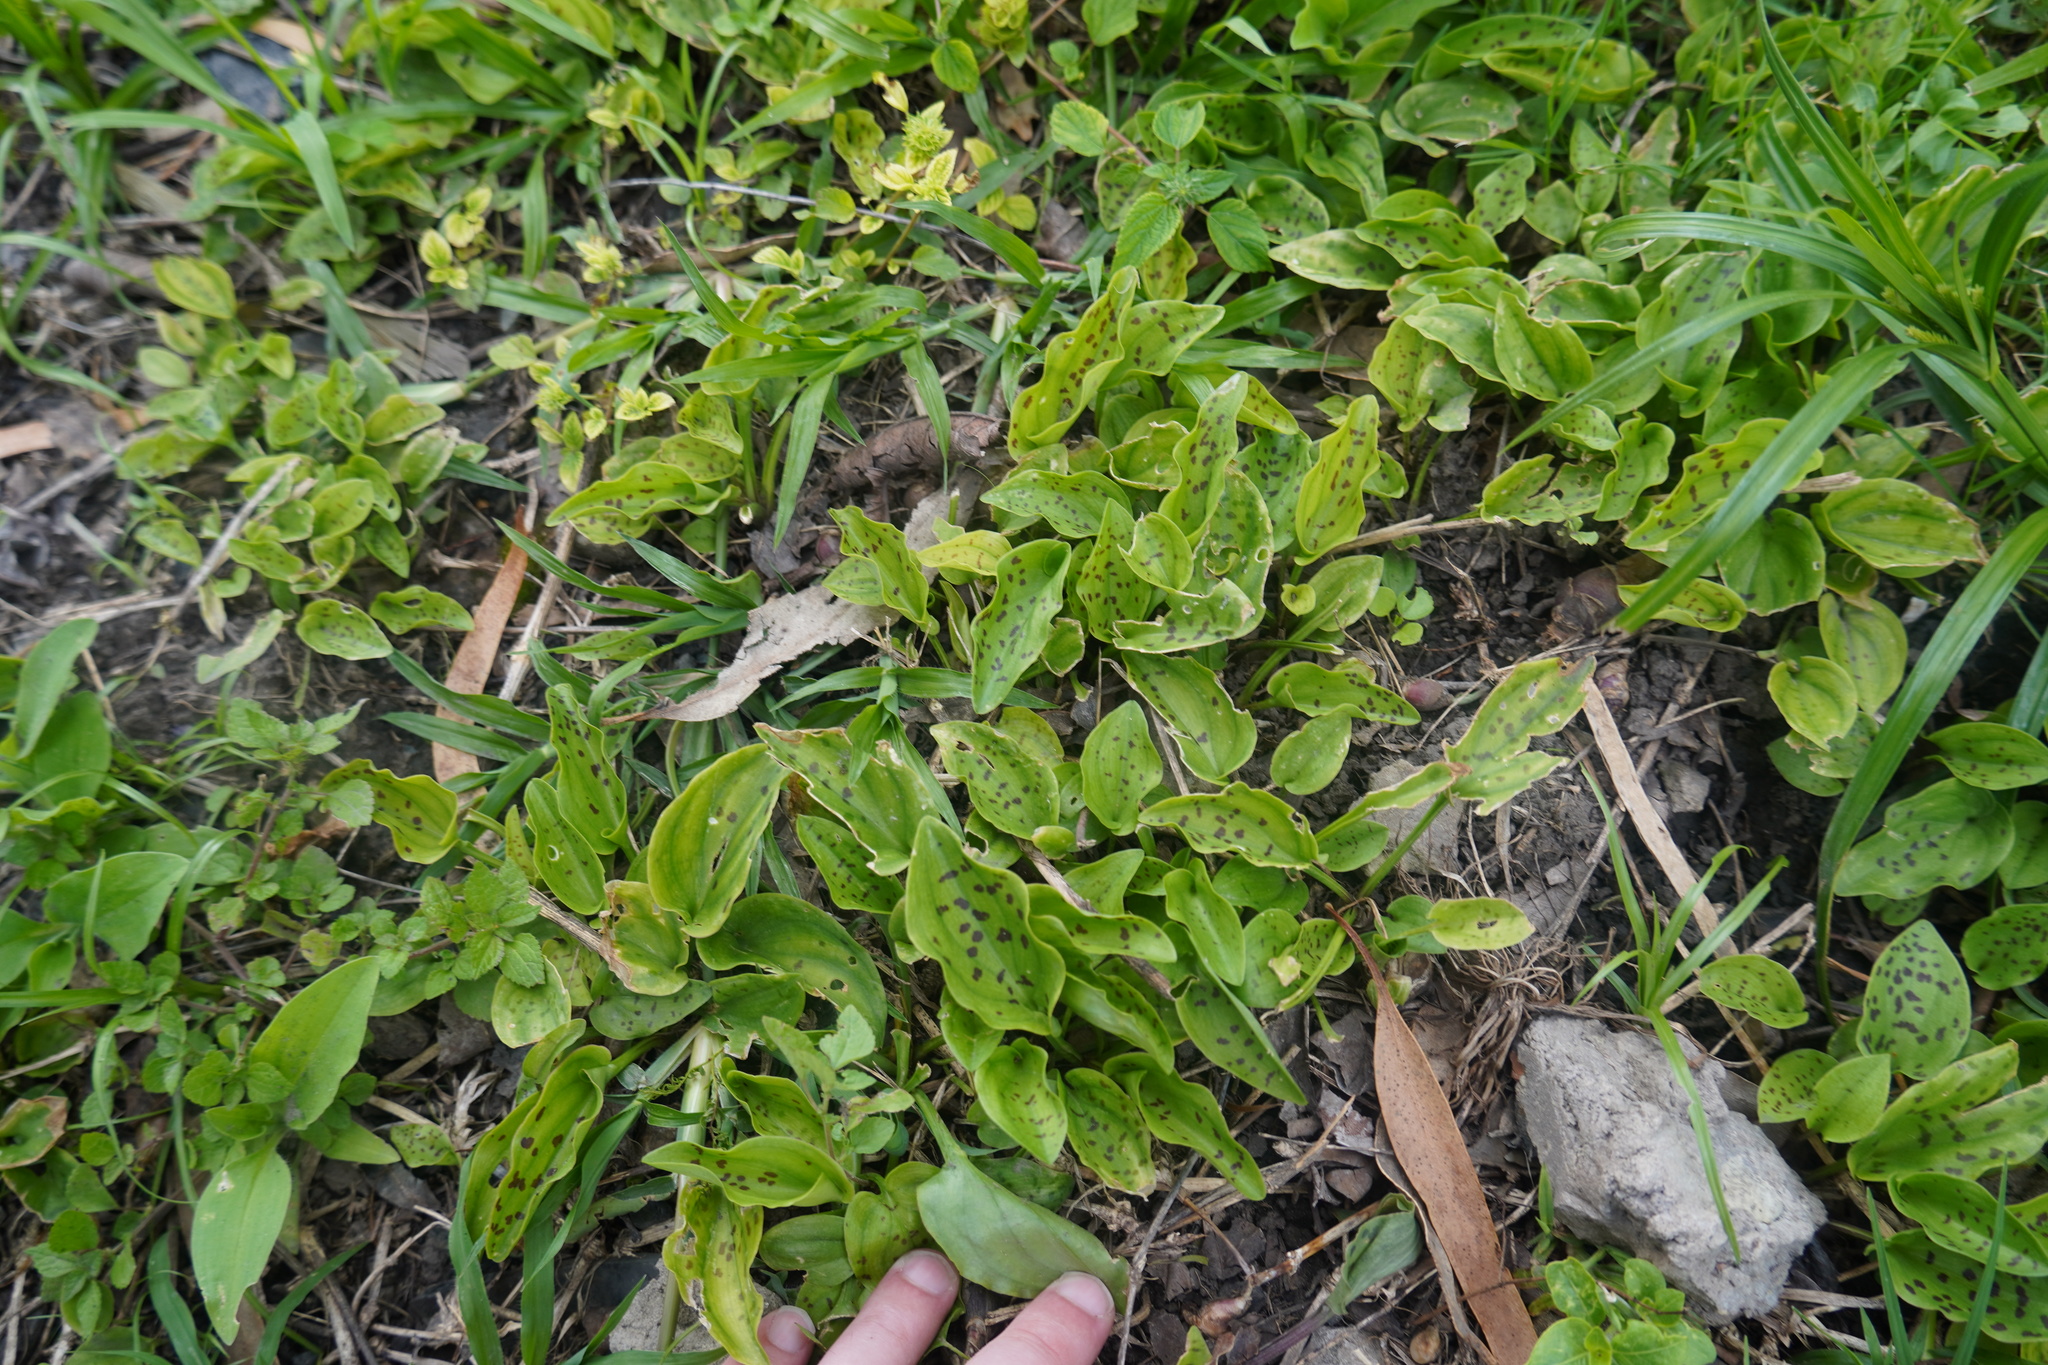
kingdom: Plantae
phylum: Tracheophyta
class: Liliopsida
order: Asparagales
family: Asparagaceae
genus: Drimiopsis
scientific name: Drimiopsis maculata
